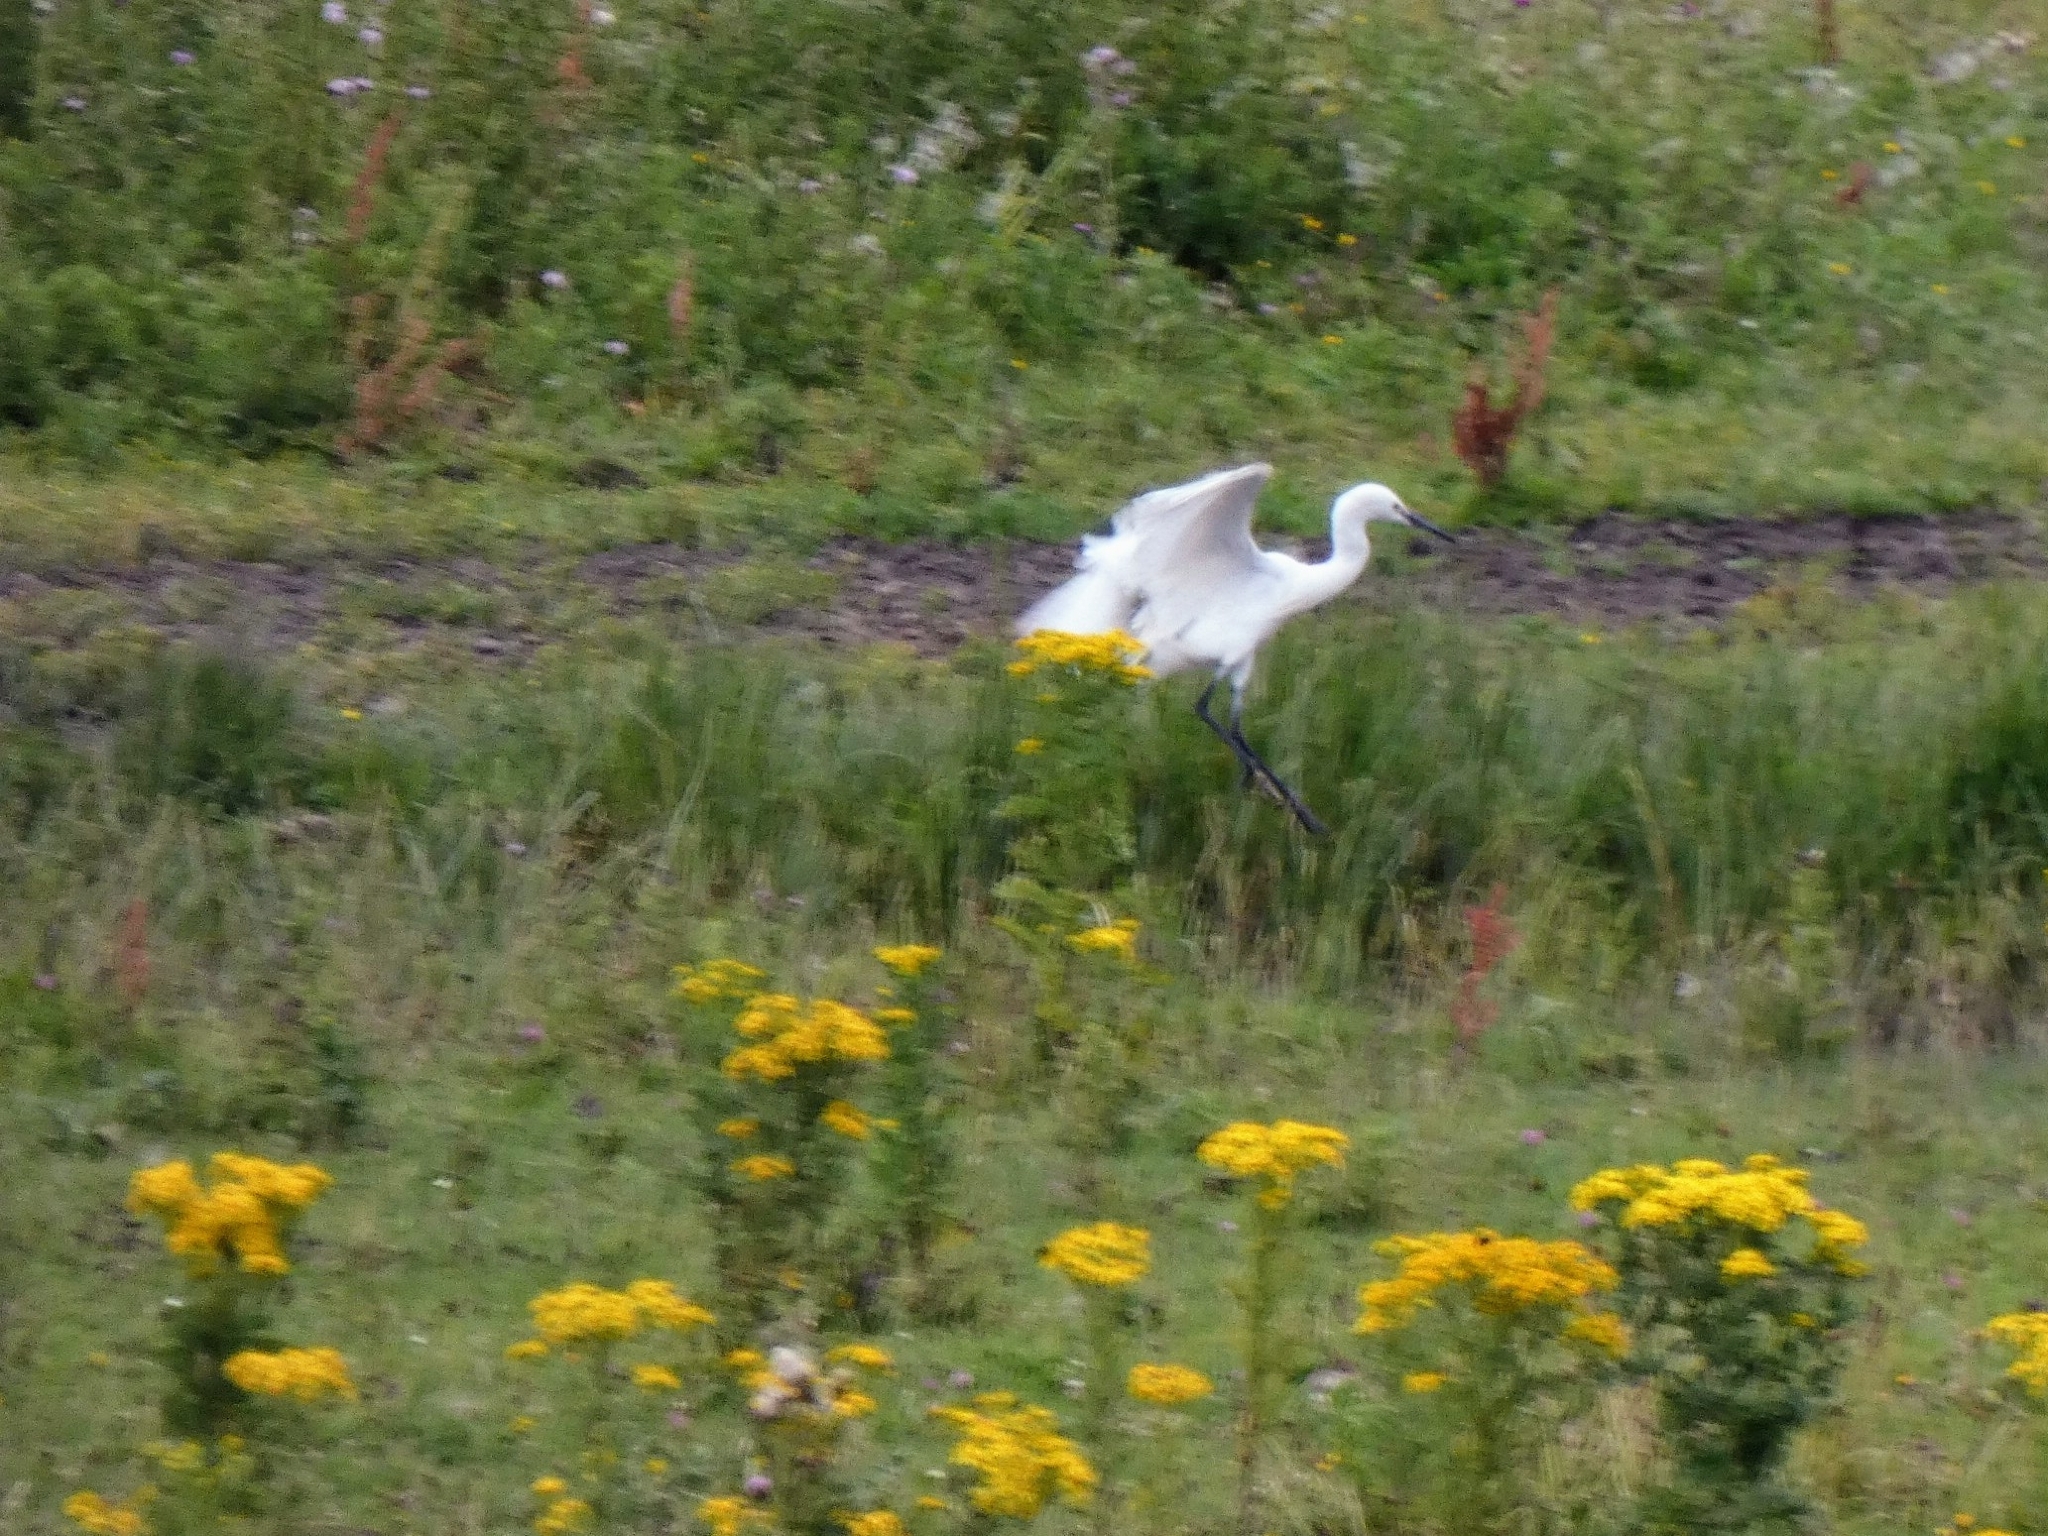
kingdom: Animalia
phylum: Chordata
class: Aves
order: Pelecaniformes
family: Ardeidae
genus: Egretta
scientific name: Egretta garzetta
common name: Little egret
